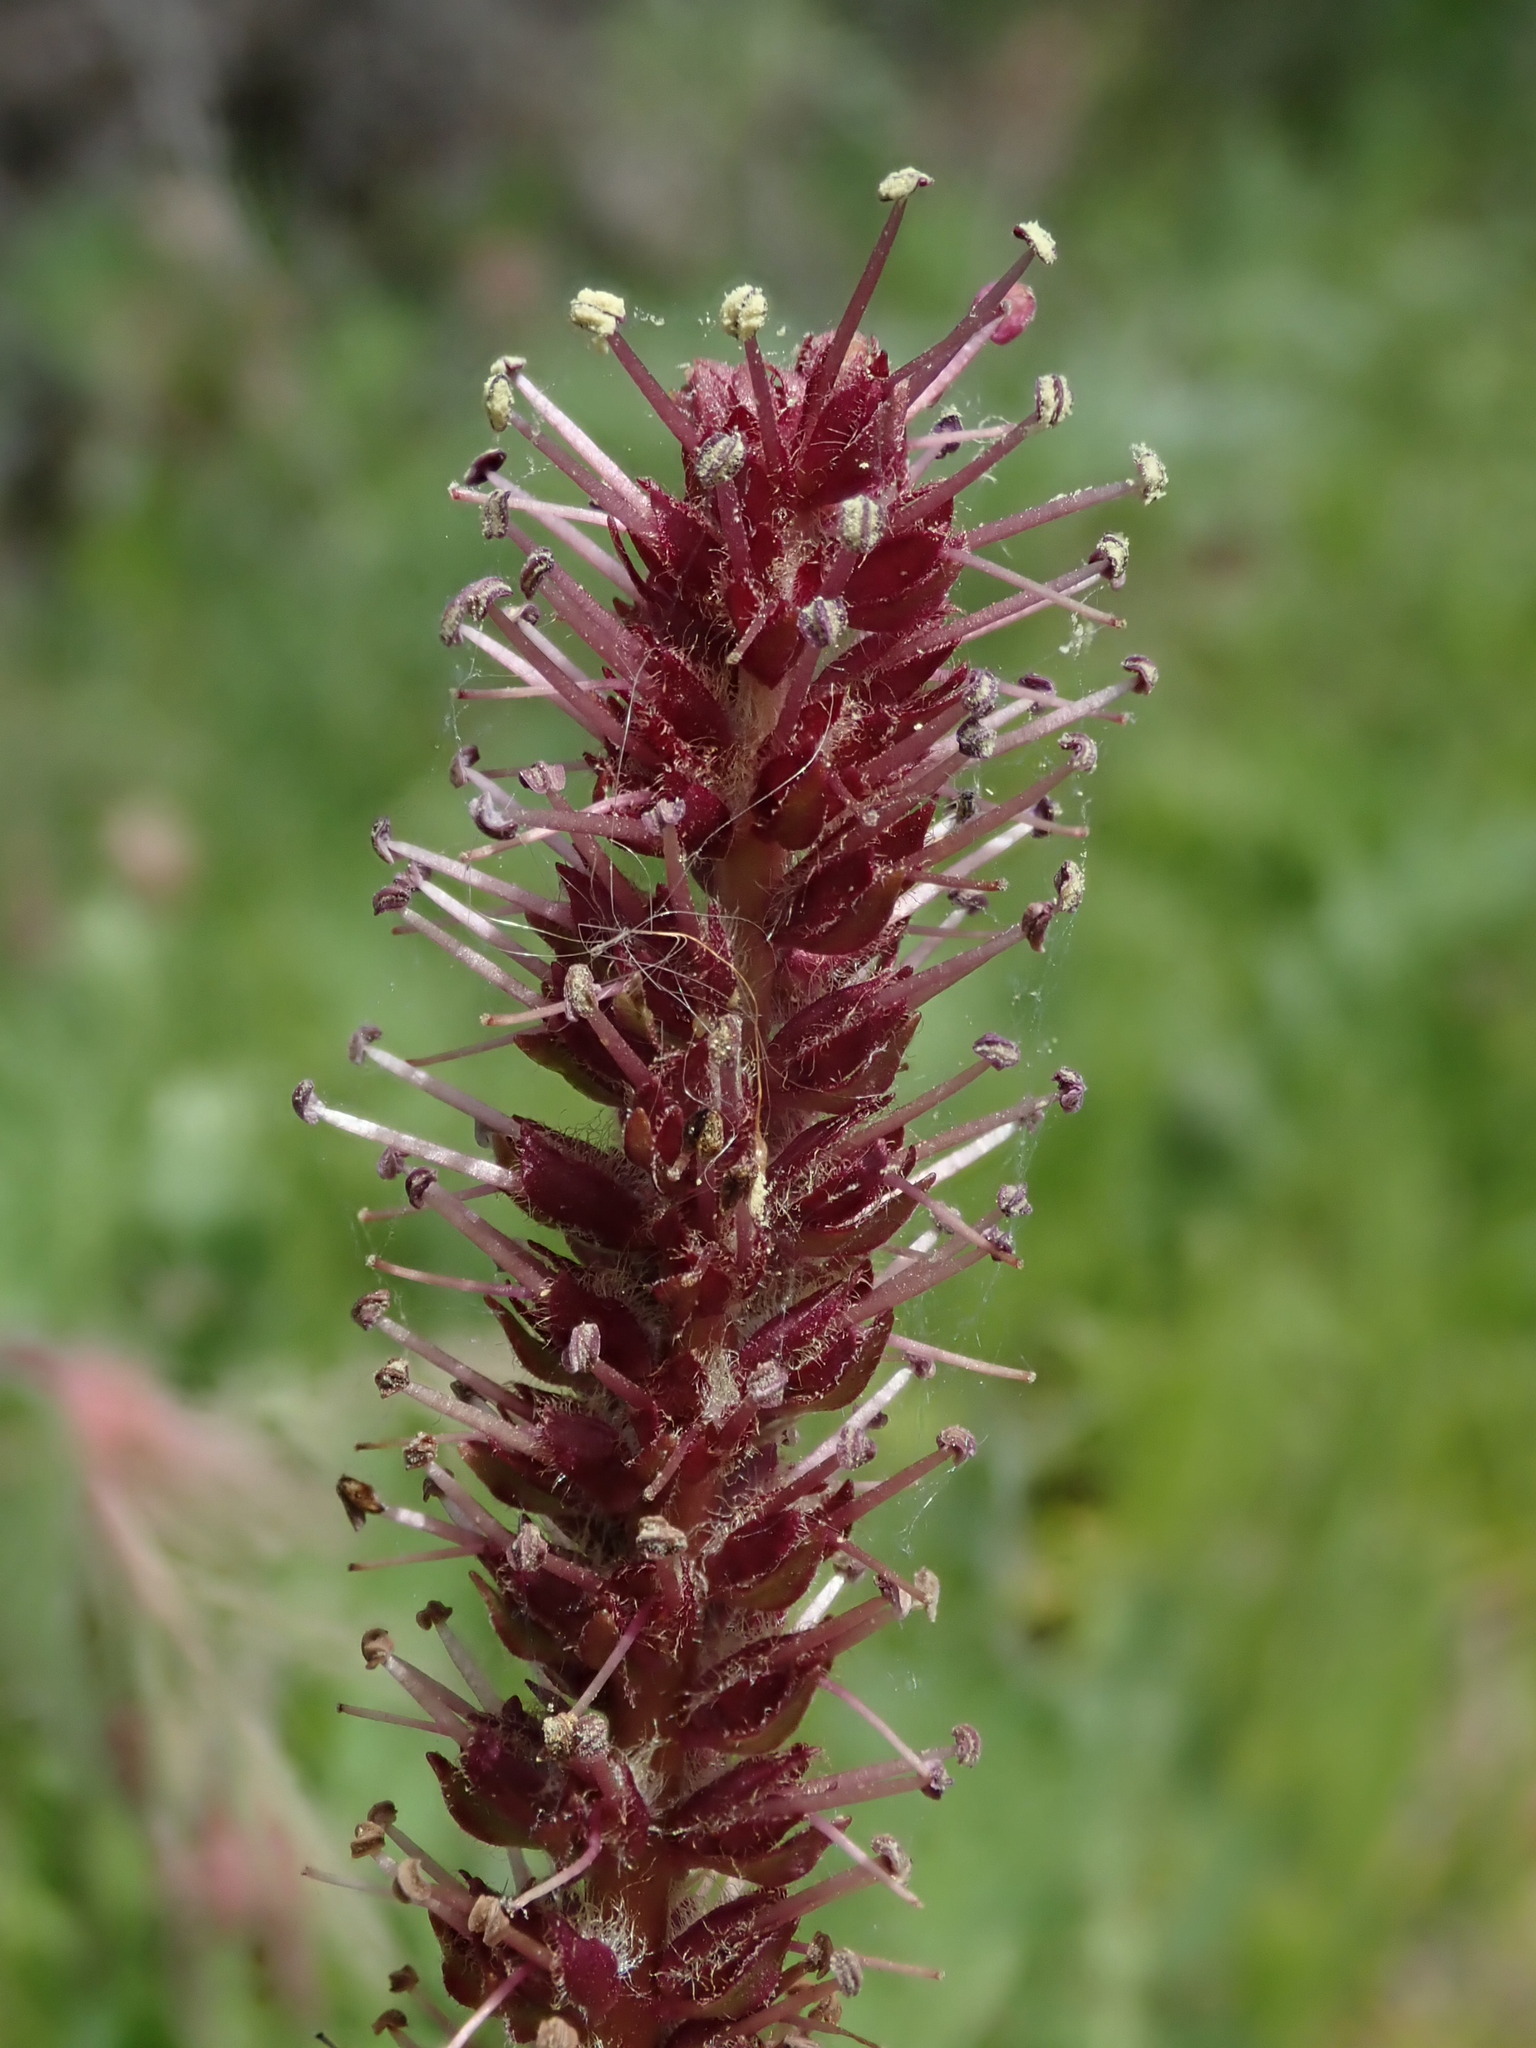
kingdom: Plantae
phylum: Tracheophyta
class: Magnoliopsida
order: Lamiales
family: Plantaginaceae
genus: Synthyris
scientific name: Synthyris rubra
